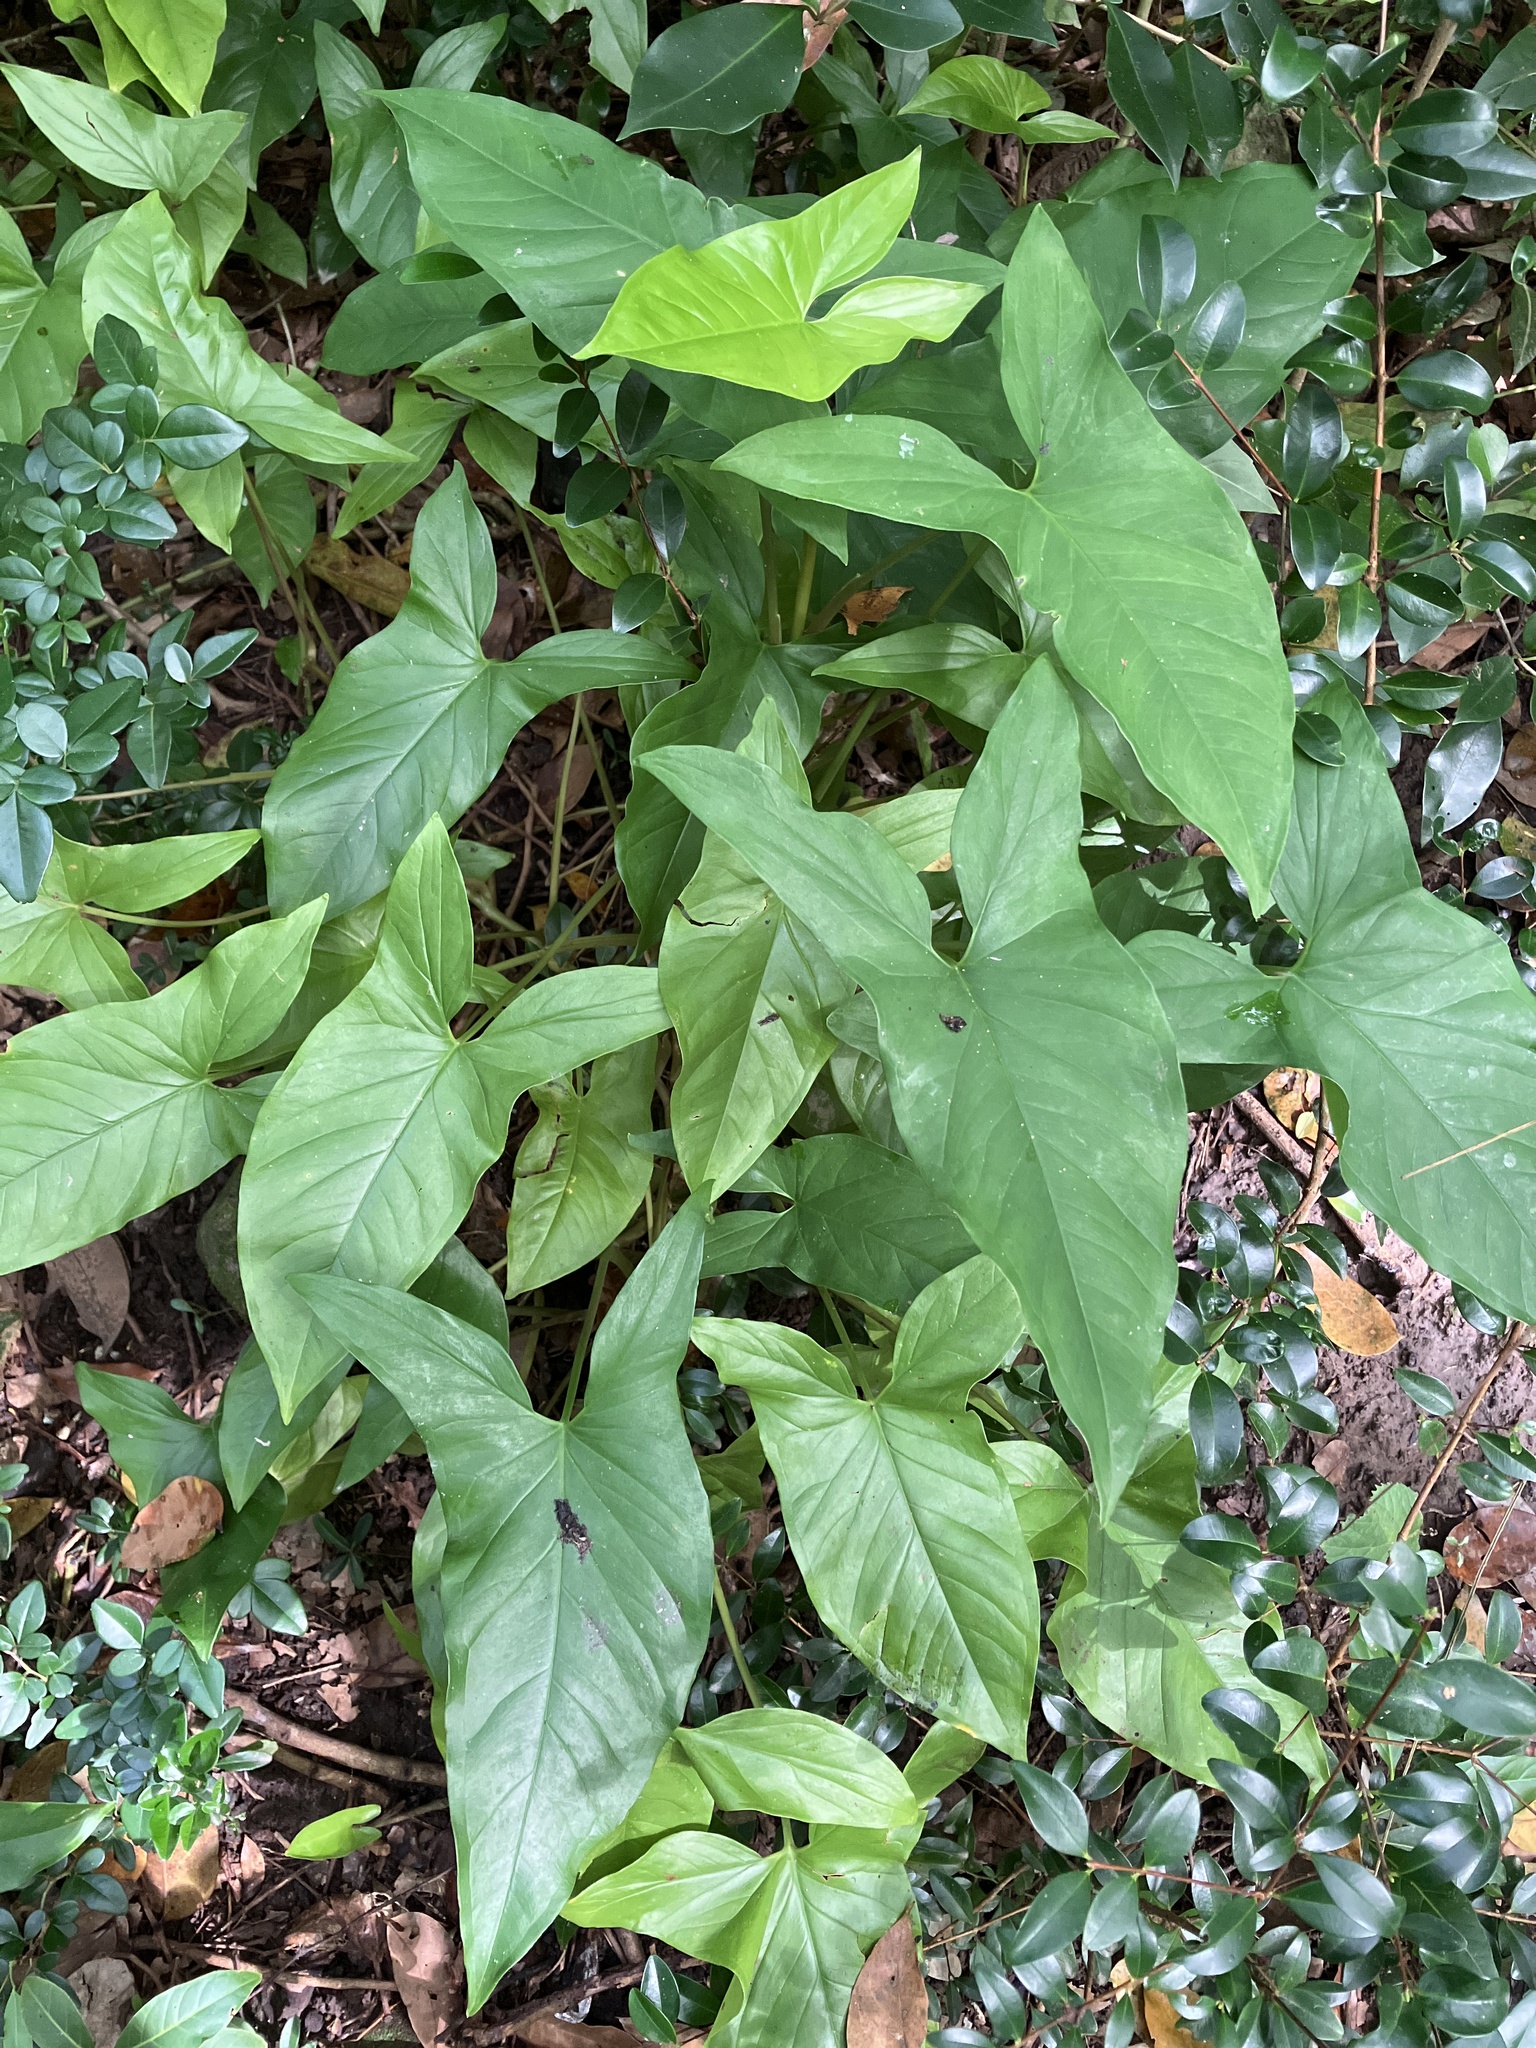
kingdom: Plantae
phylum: Tracheophyta
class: Liliopsida
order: Alismatales
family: Araceae
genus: Syngonium
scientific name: Syngonium podophyllum
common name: American evergreen
